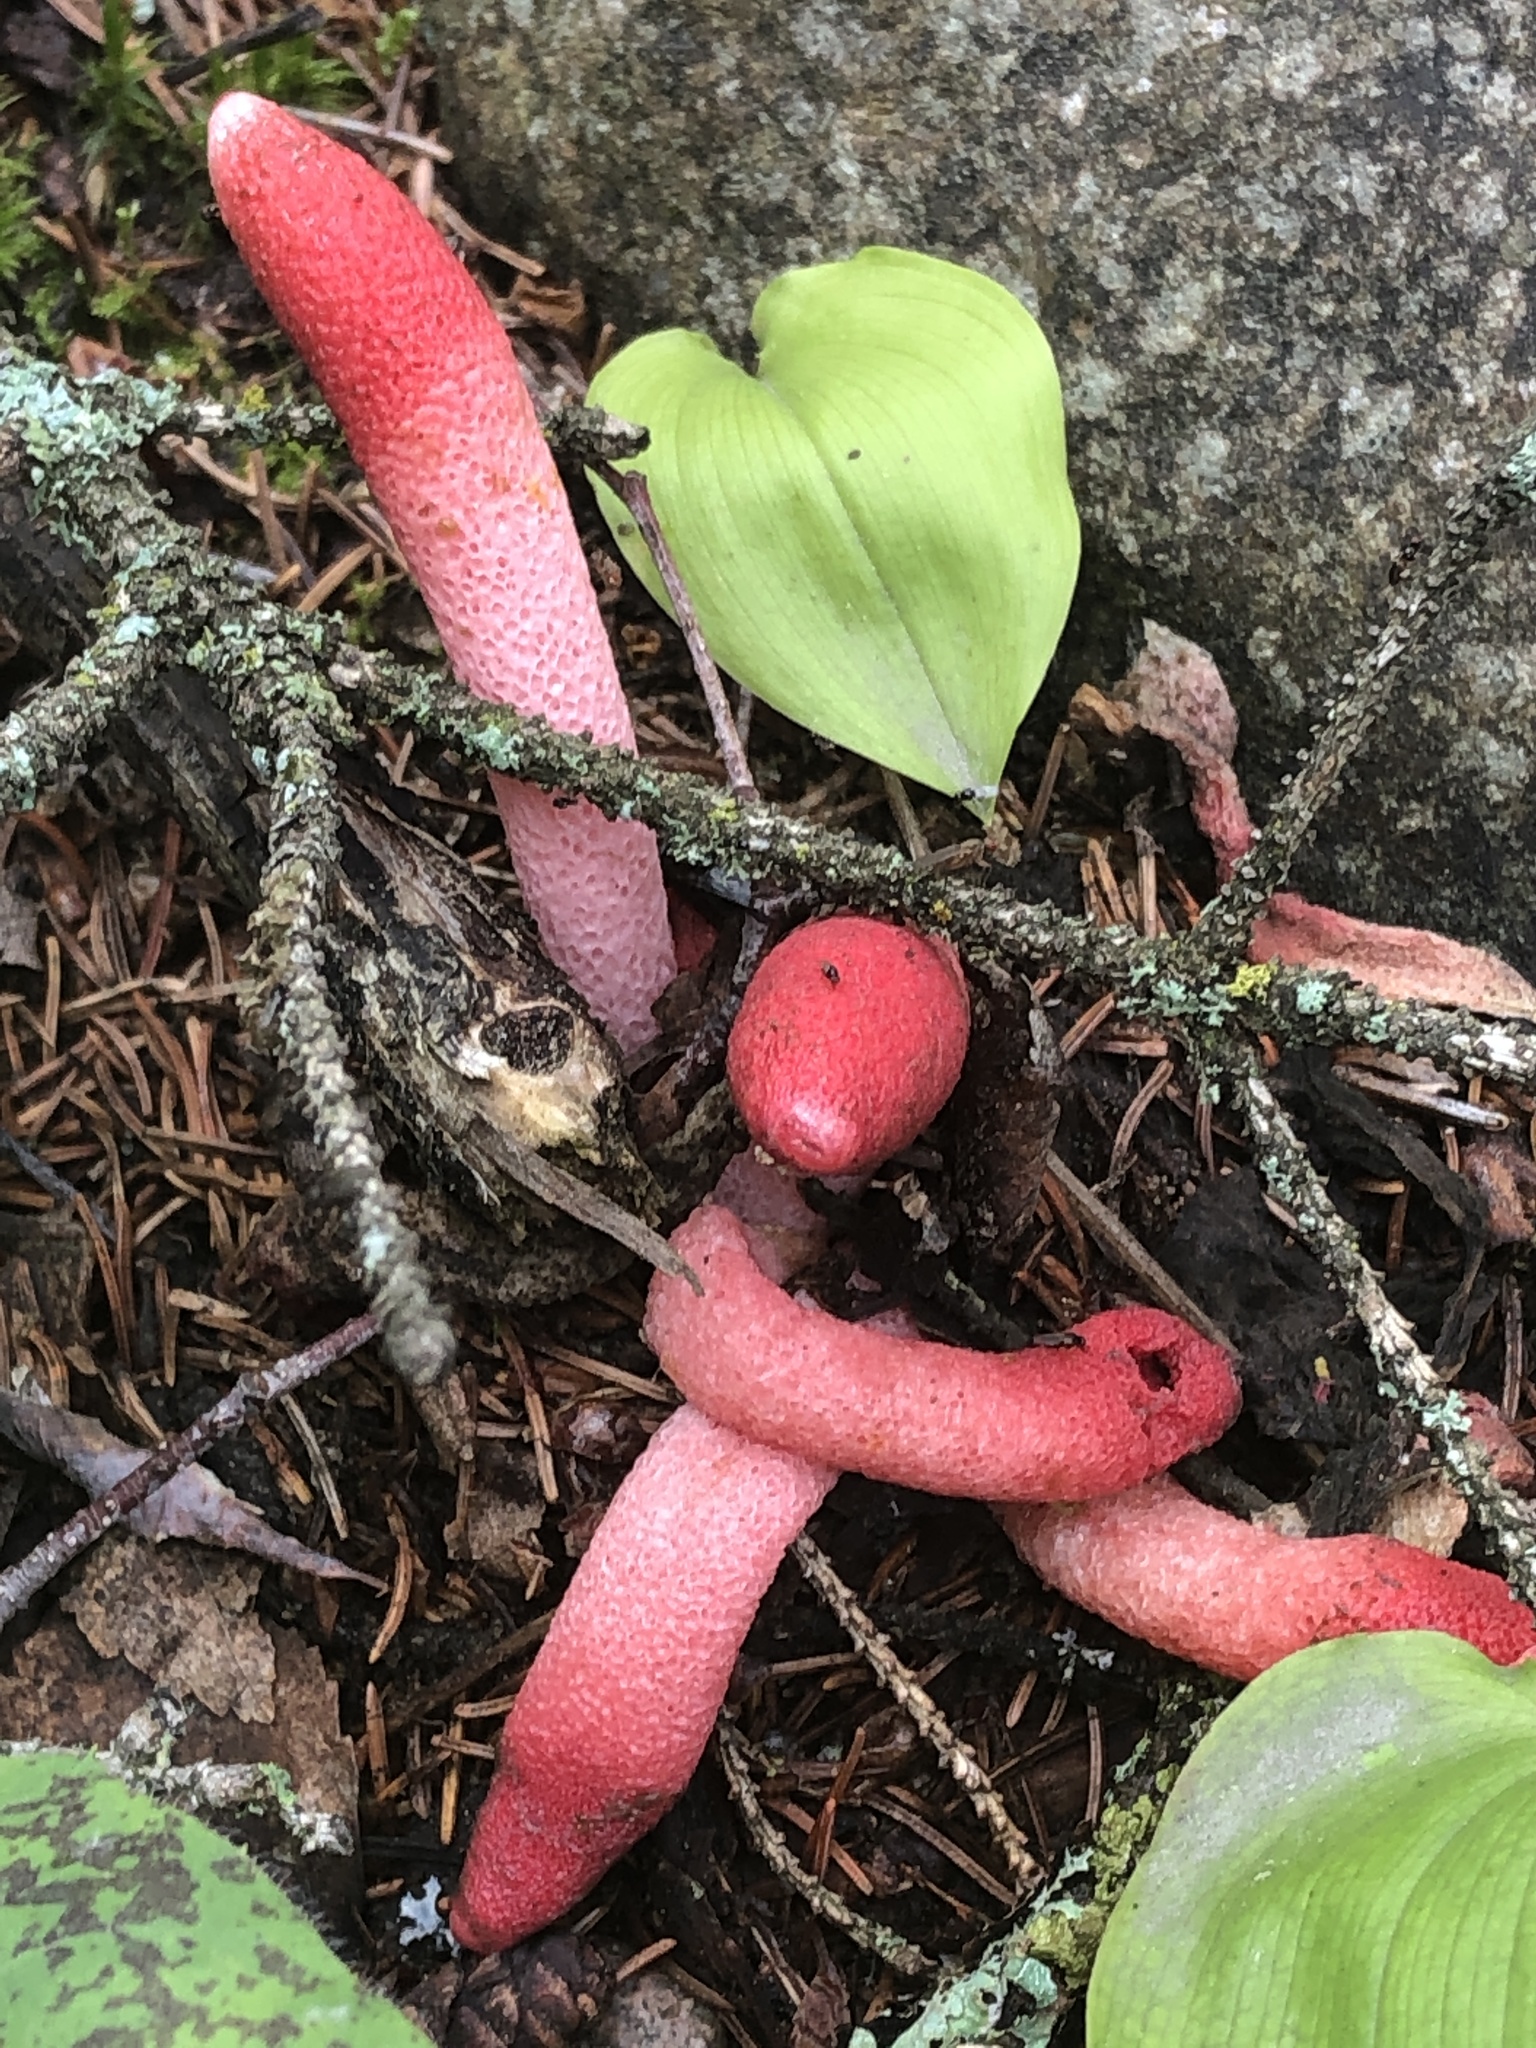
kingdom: Fungi
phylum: Basidiomycota
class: Agaricomycetes
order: Phallales
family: Phallaceae
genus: Mutinus
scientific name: Mutinus ravenelii
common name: Red stinkhorn
